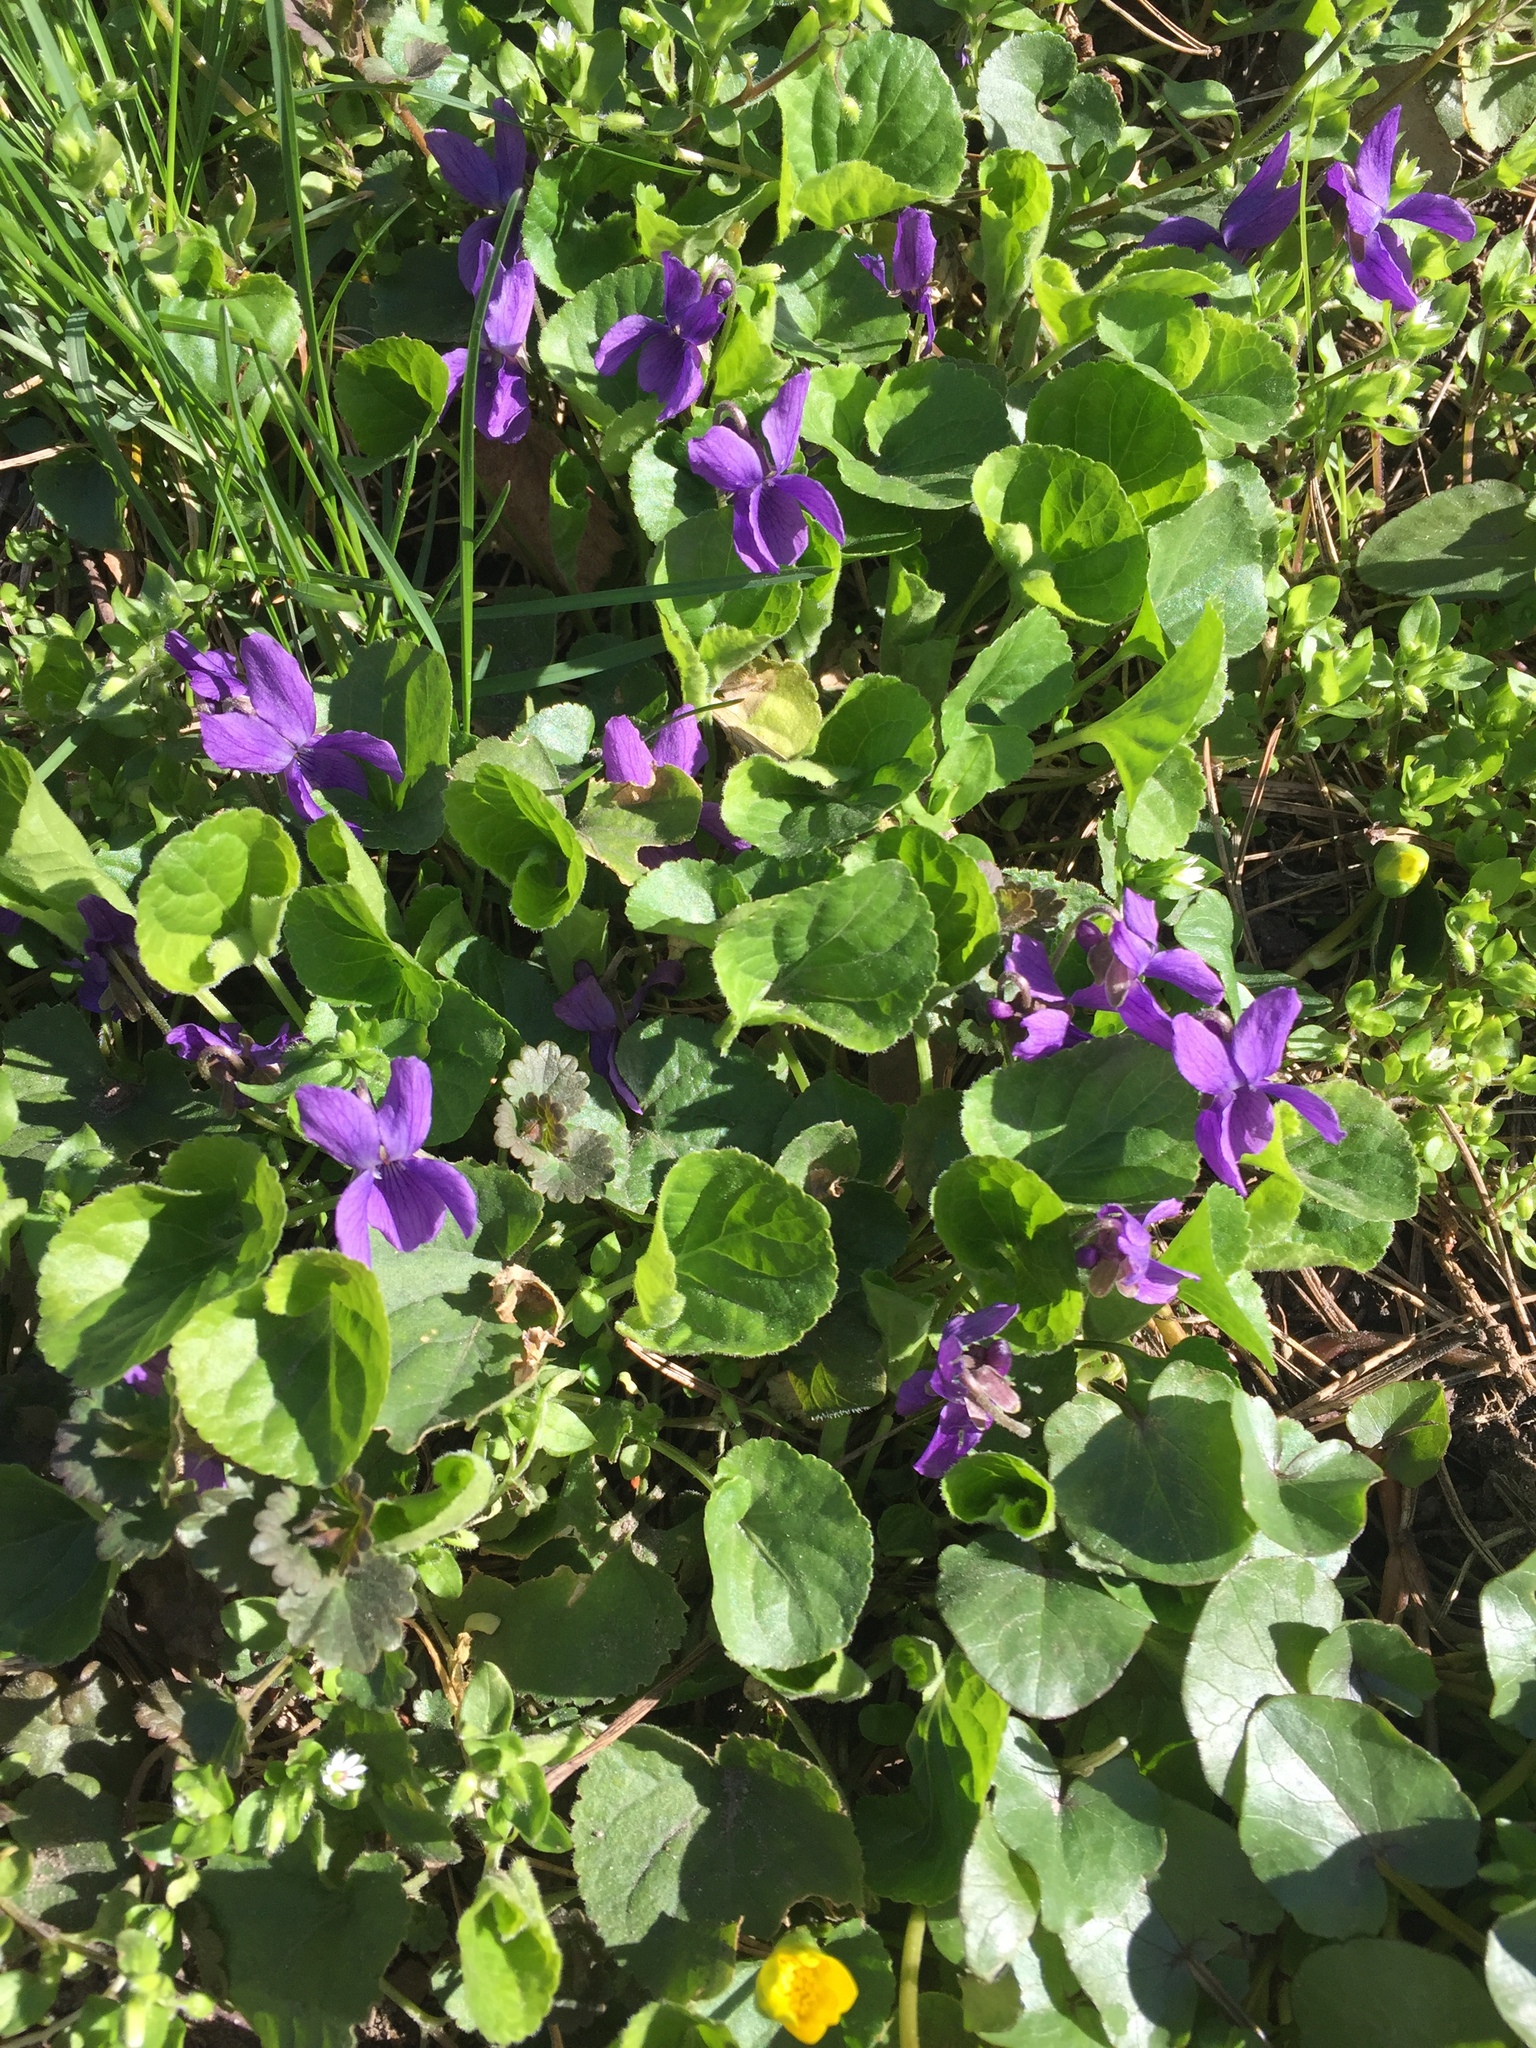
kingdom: Plantae
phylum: Tracheophyta
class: Magnoliopsida
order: Malpighiales
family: Violaceae
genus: Viola
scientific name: Viola odorata
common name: Sweet violet
